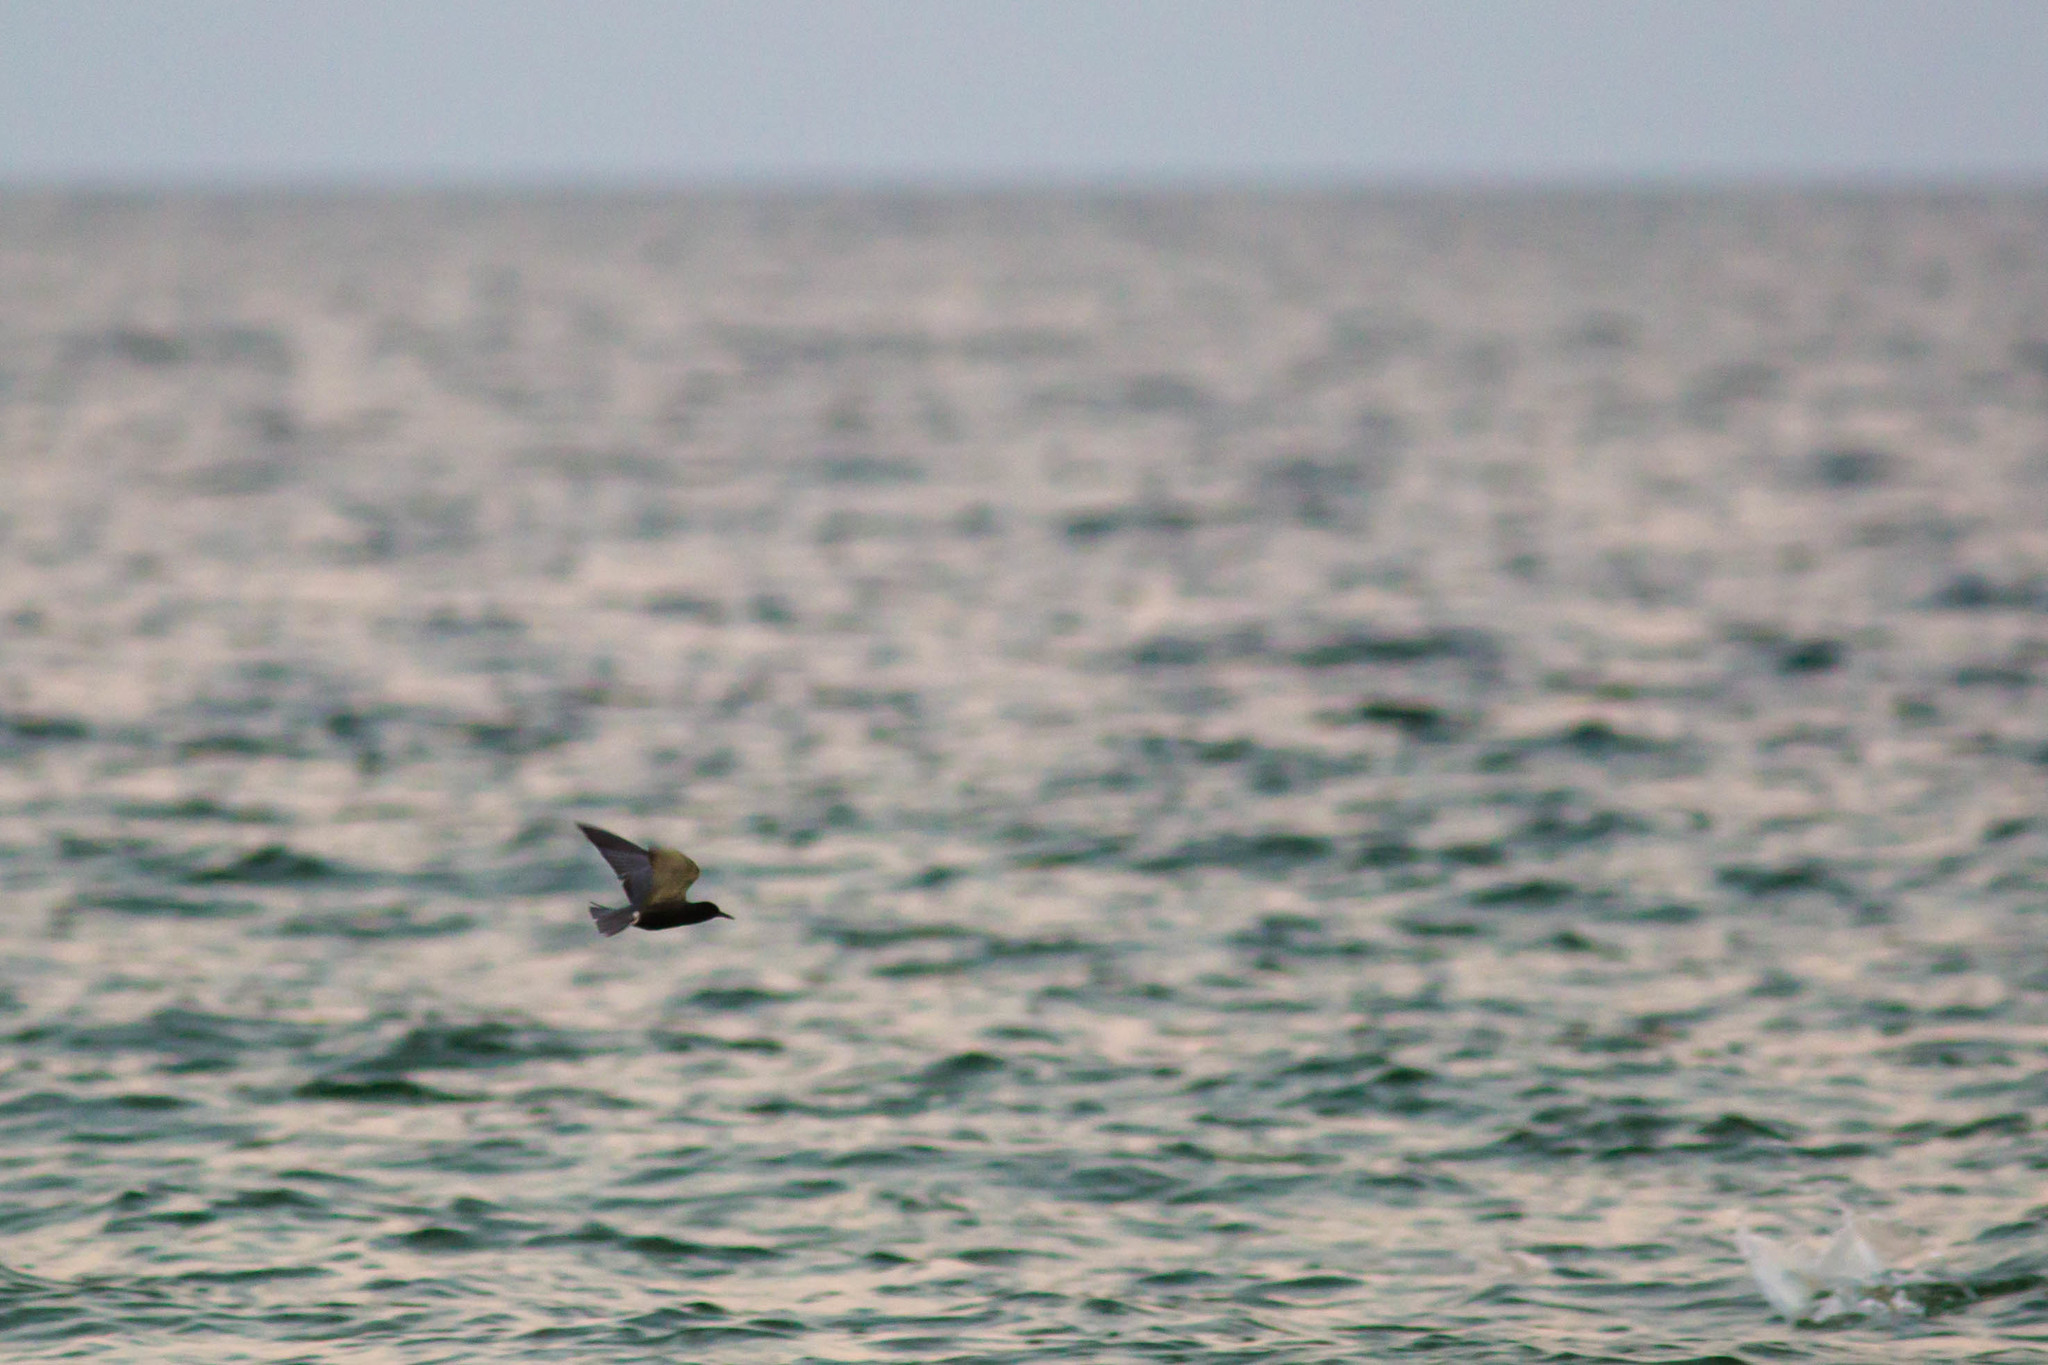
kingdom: Animalia
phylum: Chordata
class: Aves
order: Charadriiformes
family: Laridae
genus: Chlidonias
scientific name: Chlidonias niger
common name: Black tern
